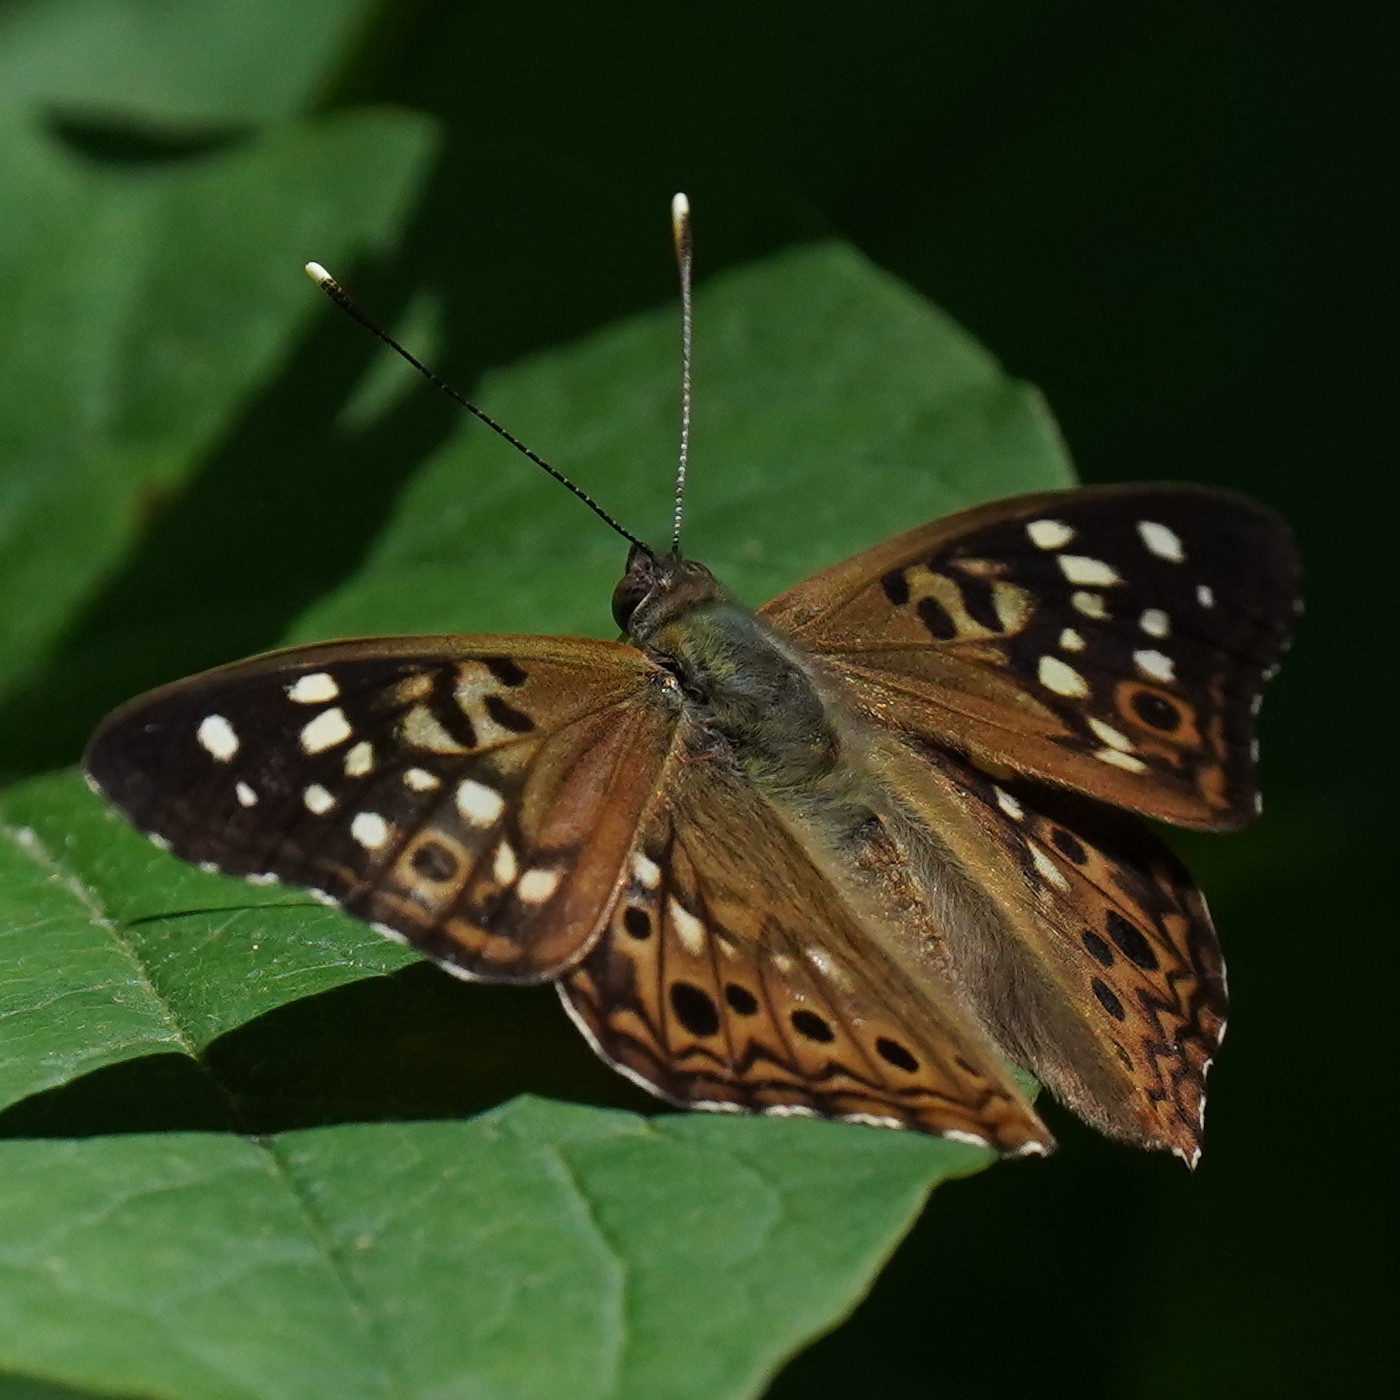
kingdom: Animalia
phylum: Arthropoda
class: Insecta
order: Lepidoptera
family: Nymphalidae
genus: Asterocampa
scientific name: Asterocampa celtis
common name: Hackberry emperor
